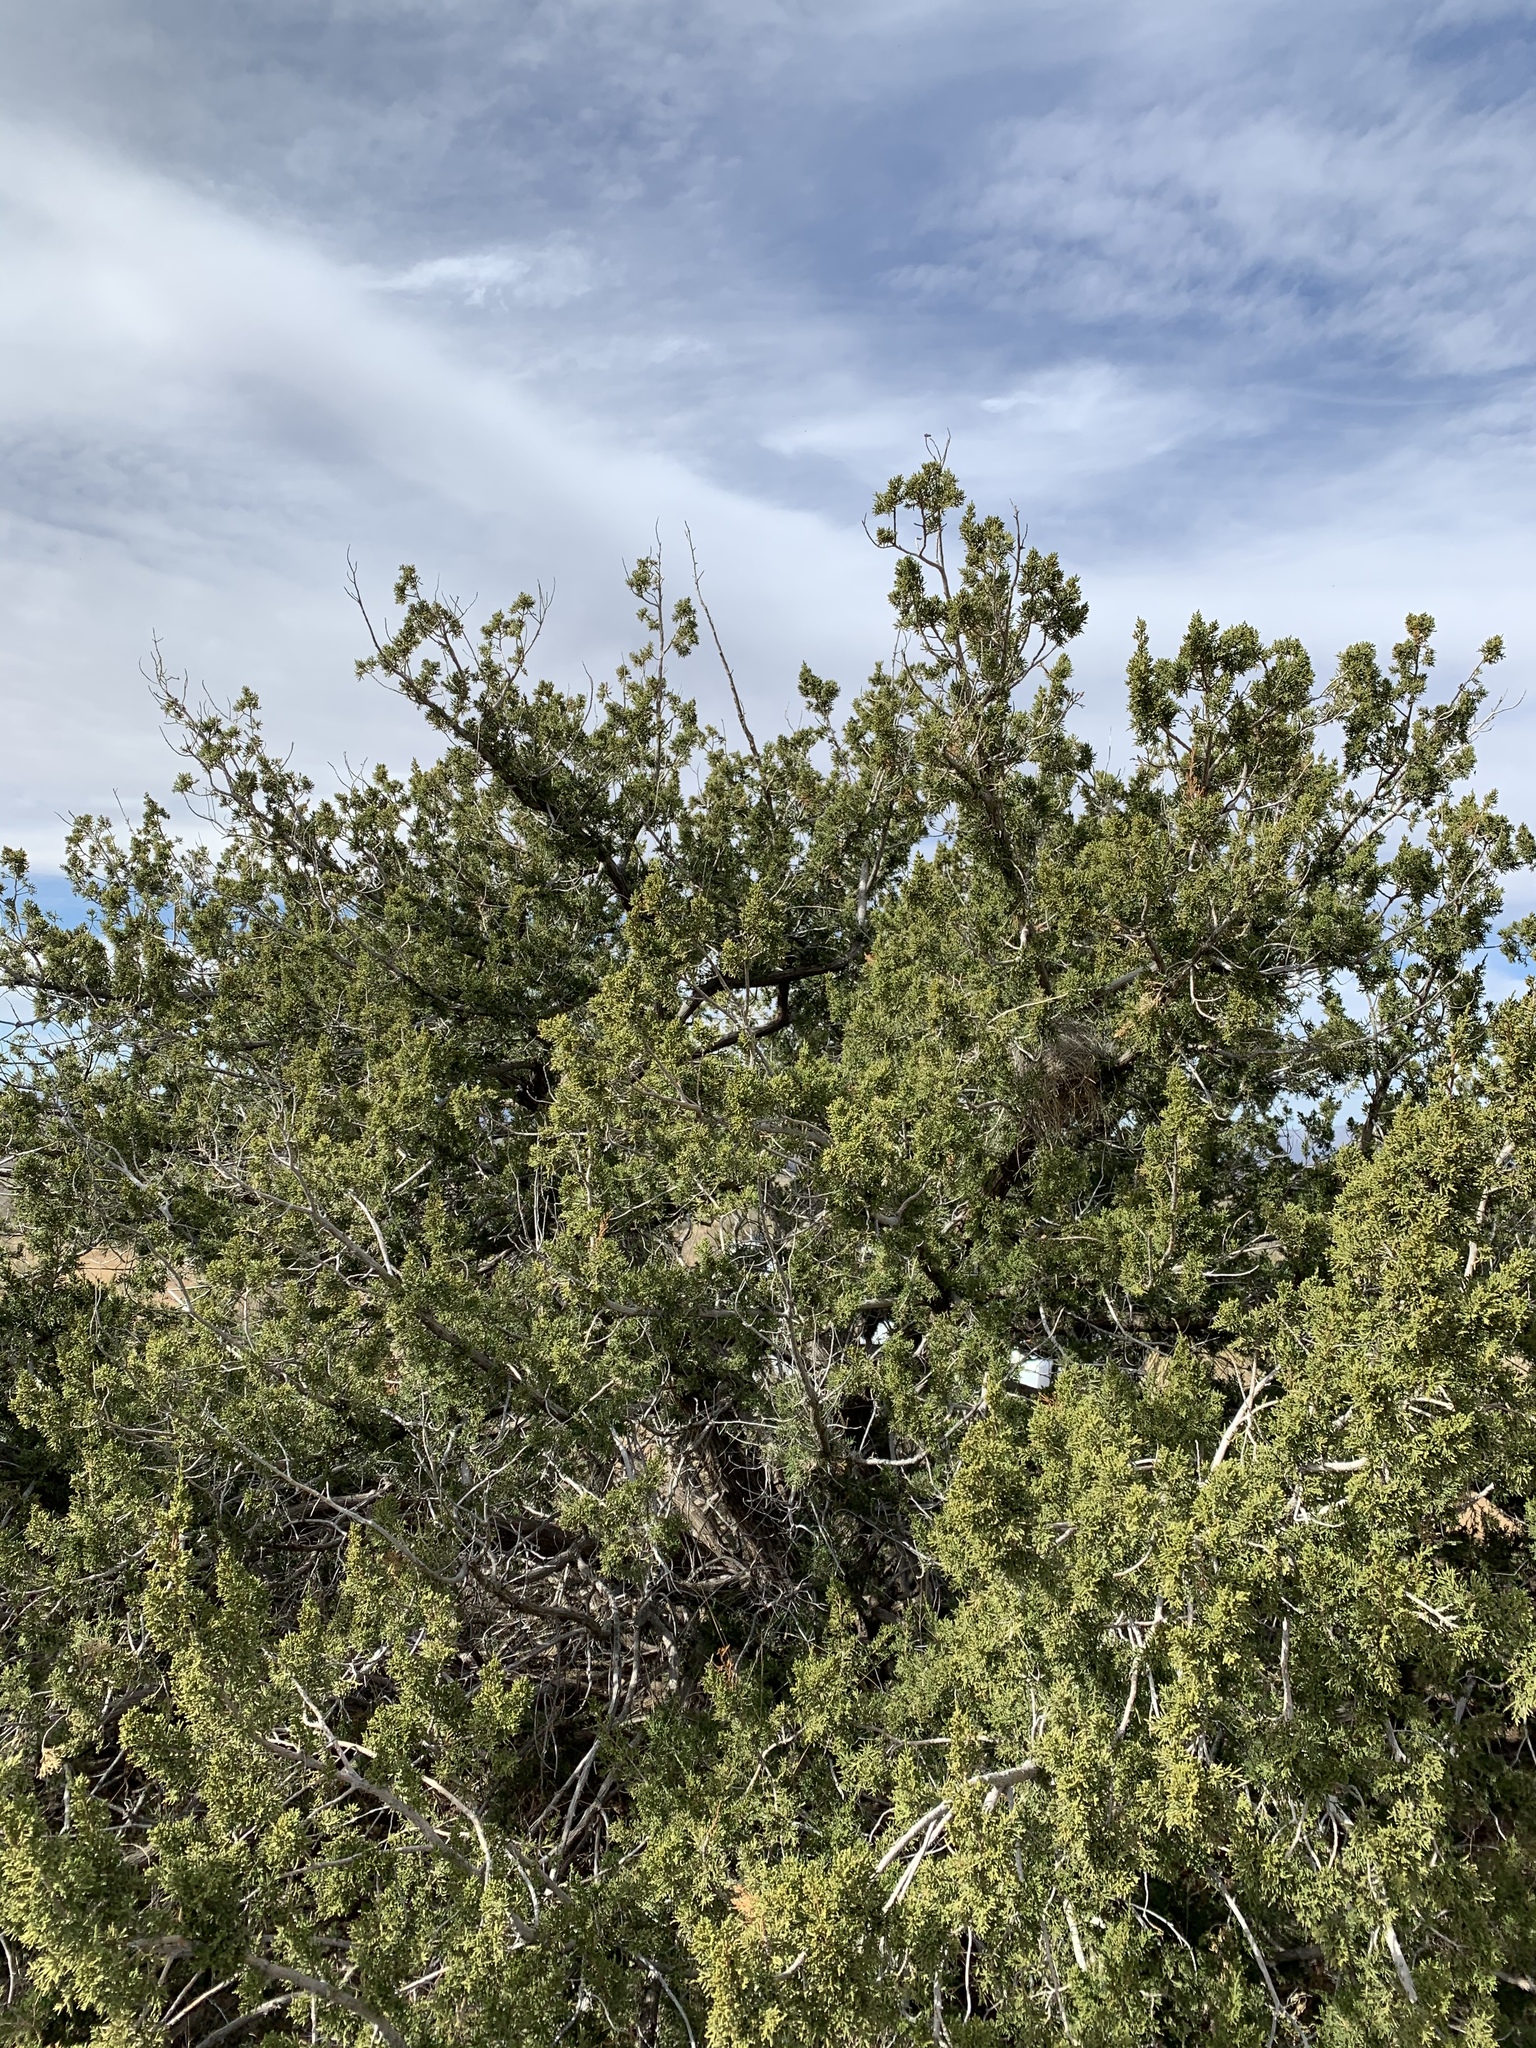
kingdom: Plantae
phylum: Tracheophyta
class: Pinopsida
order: Pinales
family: Cupressaceae
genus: Juniperus
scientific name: Juniperus arizonica
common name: Arizona juniper
